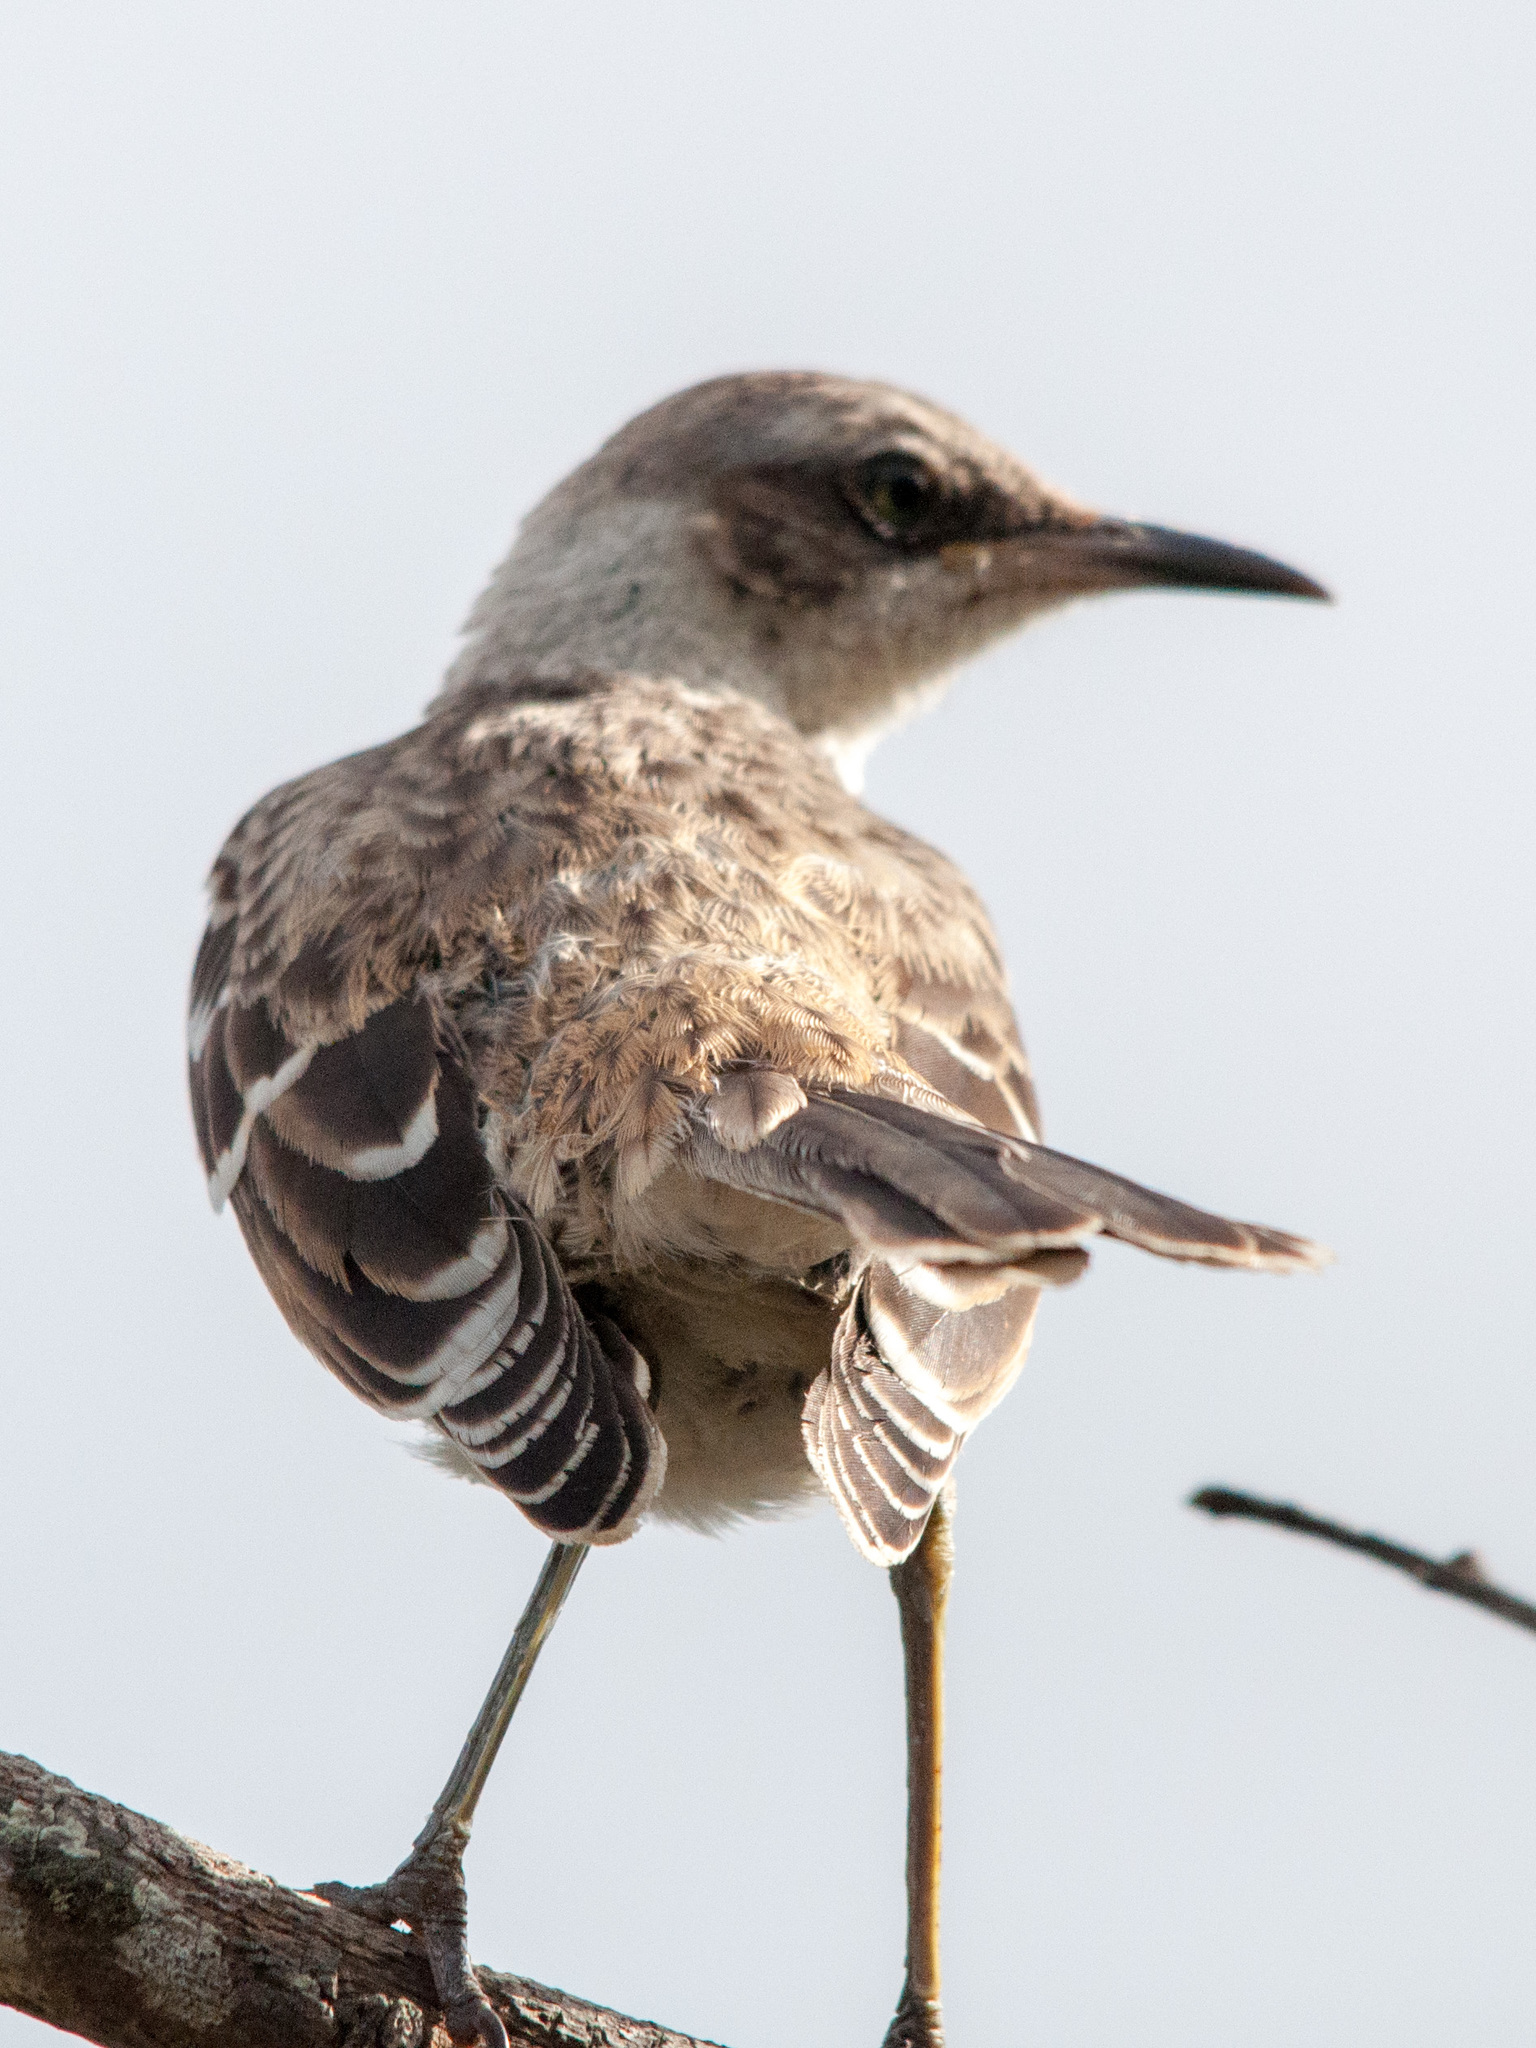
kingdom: Animalia
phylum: Chordata
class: Aves
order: Passeriformes
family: Mimidae
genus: Mimus
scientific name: Mimus parvulus
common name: Galapagos mockingbird
